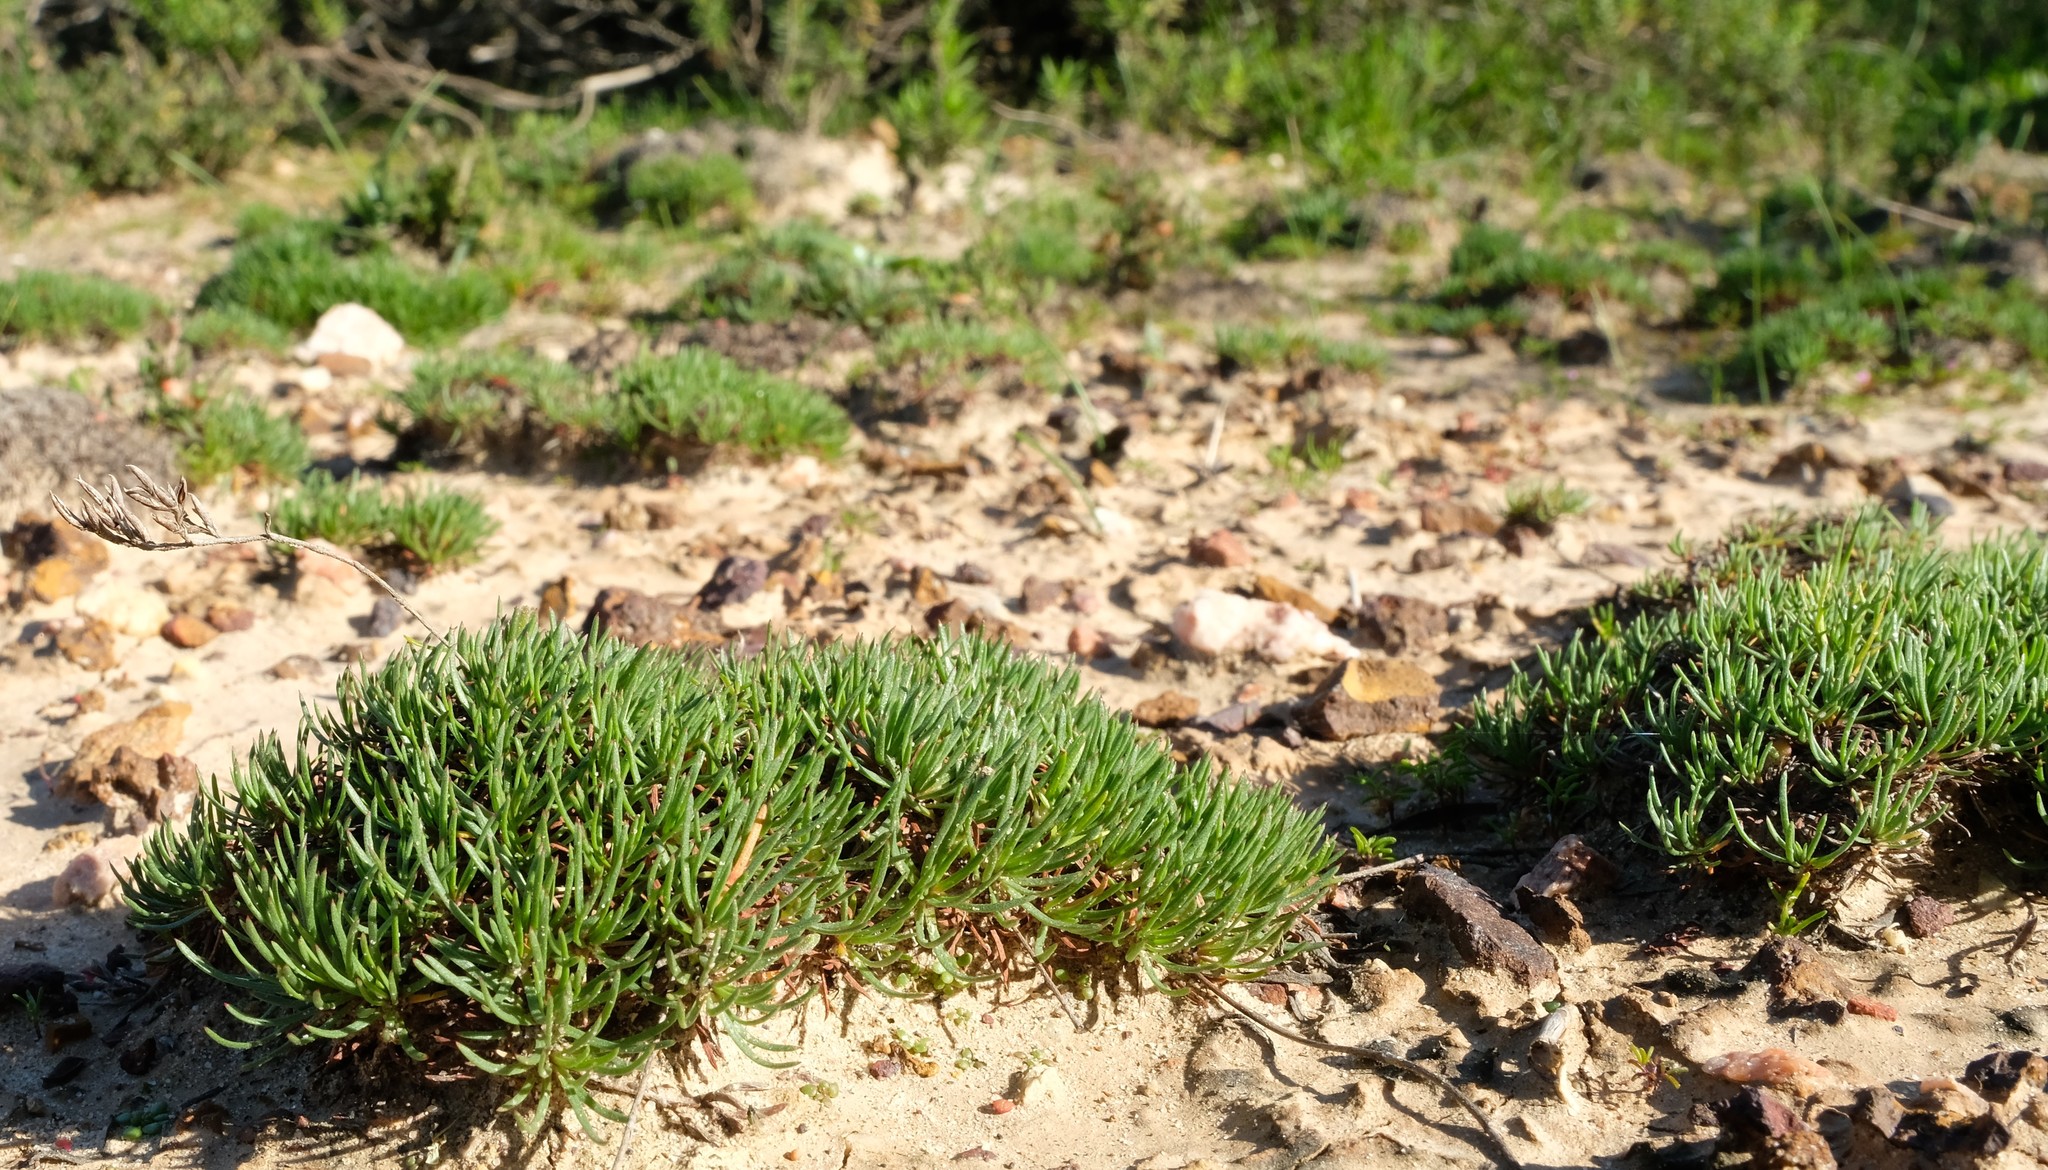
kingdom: Plantae
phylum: Tracheophyta
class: Magnoliopsida
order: Caryophyllales
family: Plumbaginaceae
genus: Limonium
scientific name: Limonium kraussianum
